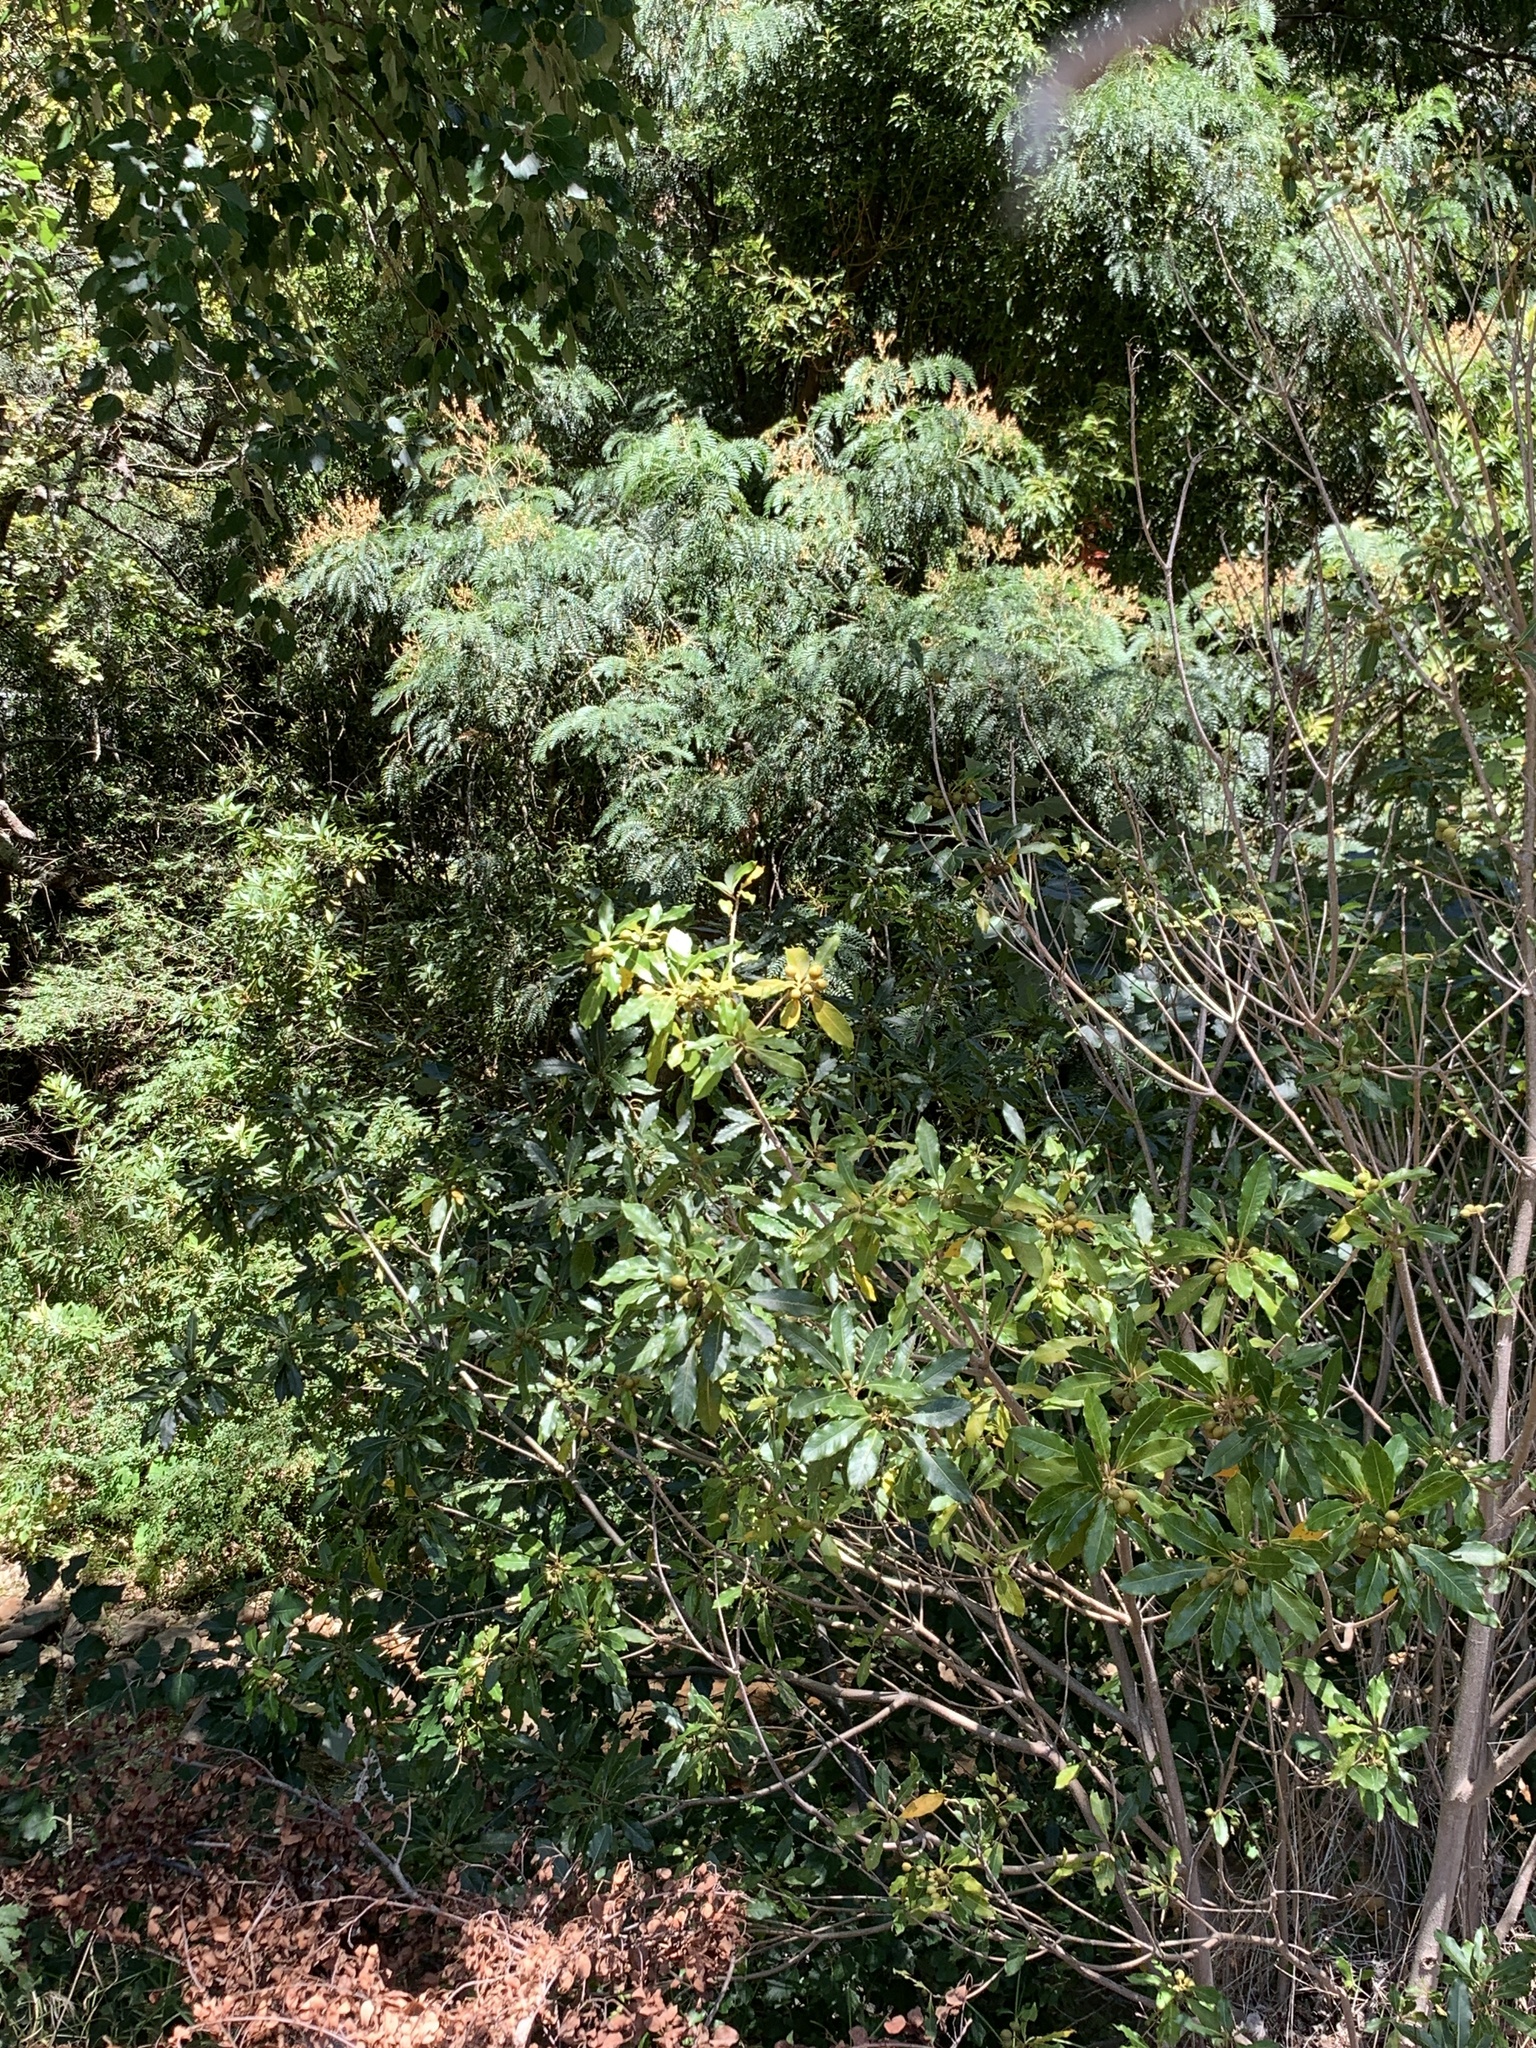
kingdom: Plantae
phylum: Tracheophyta
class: Magnoliopsida
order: Apiales
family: Pittosporaceae
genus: Pittosporum
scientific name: Pittosporum undulatum
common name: Australian cheesewood
